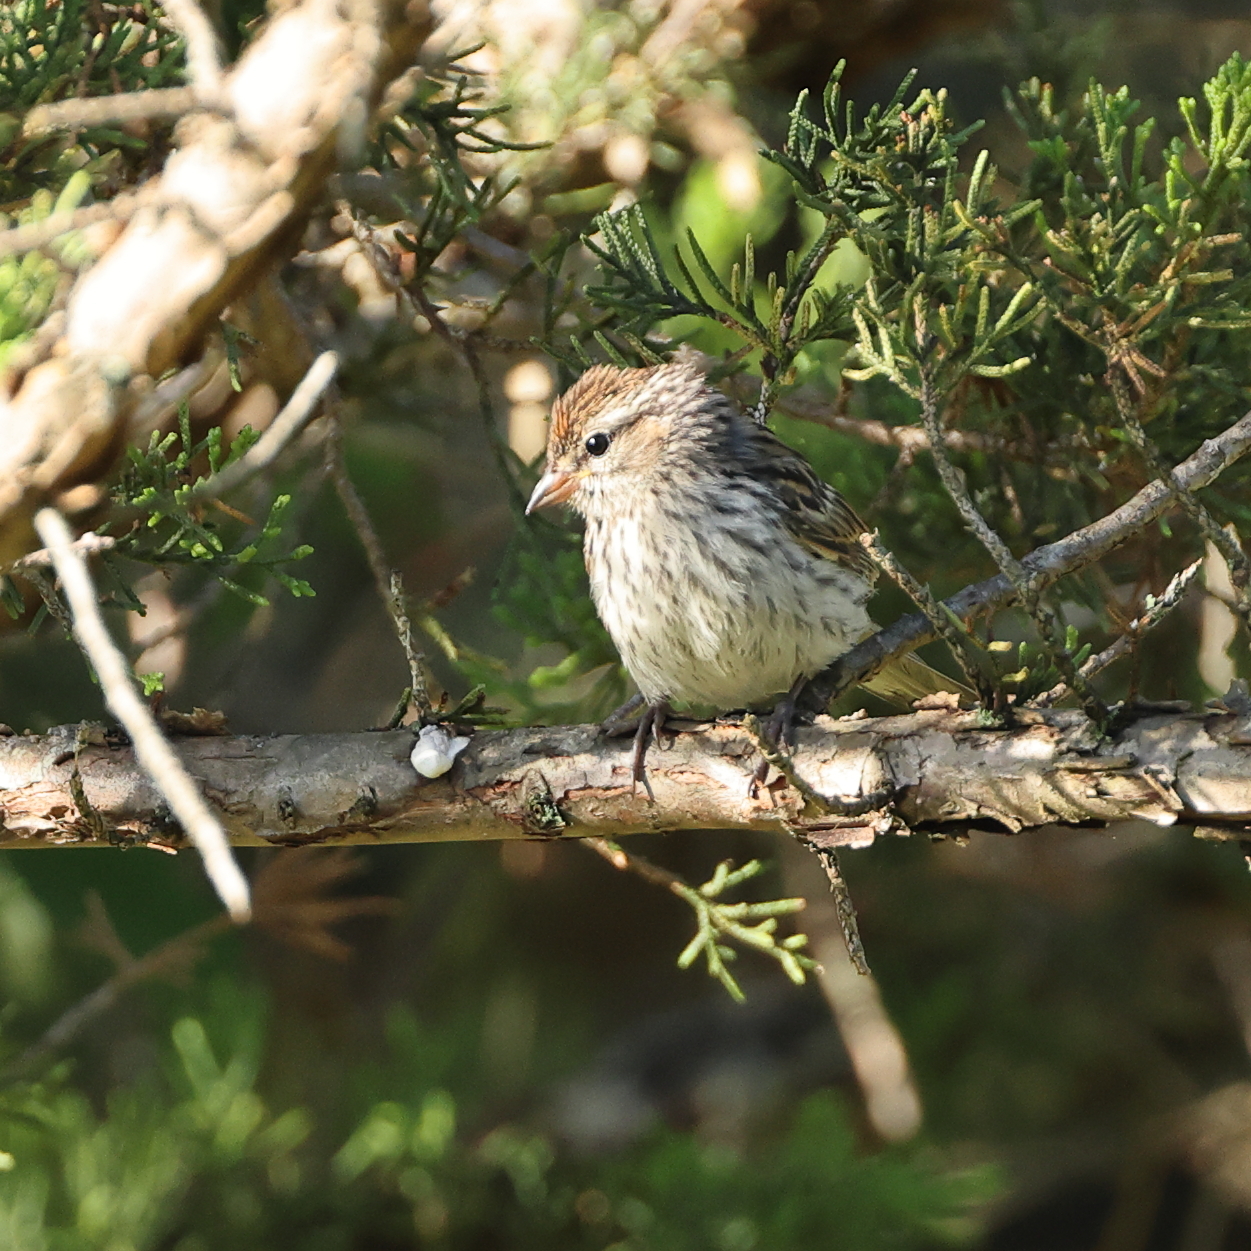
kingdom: Animalia
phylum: Chordata
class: Aves
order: Passeriformes
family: Passerellidae
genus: Spizella
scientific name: Spizella passerina
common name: Chipping sparrow
